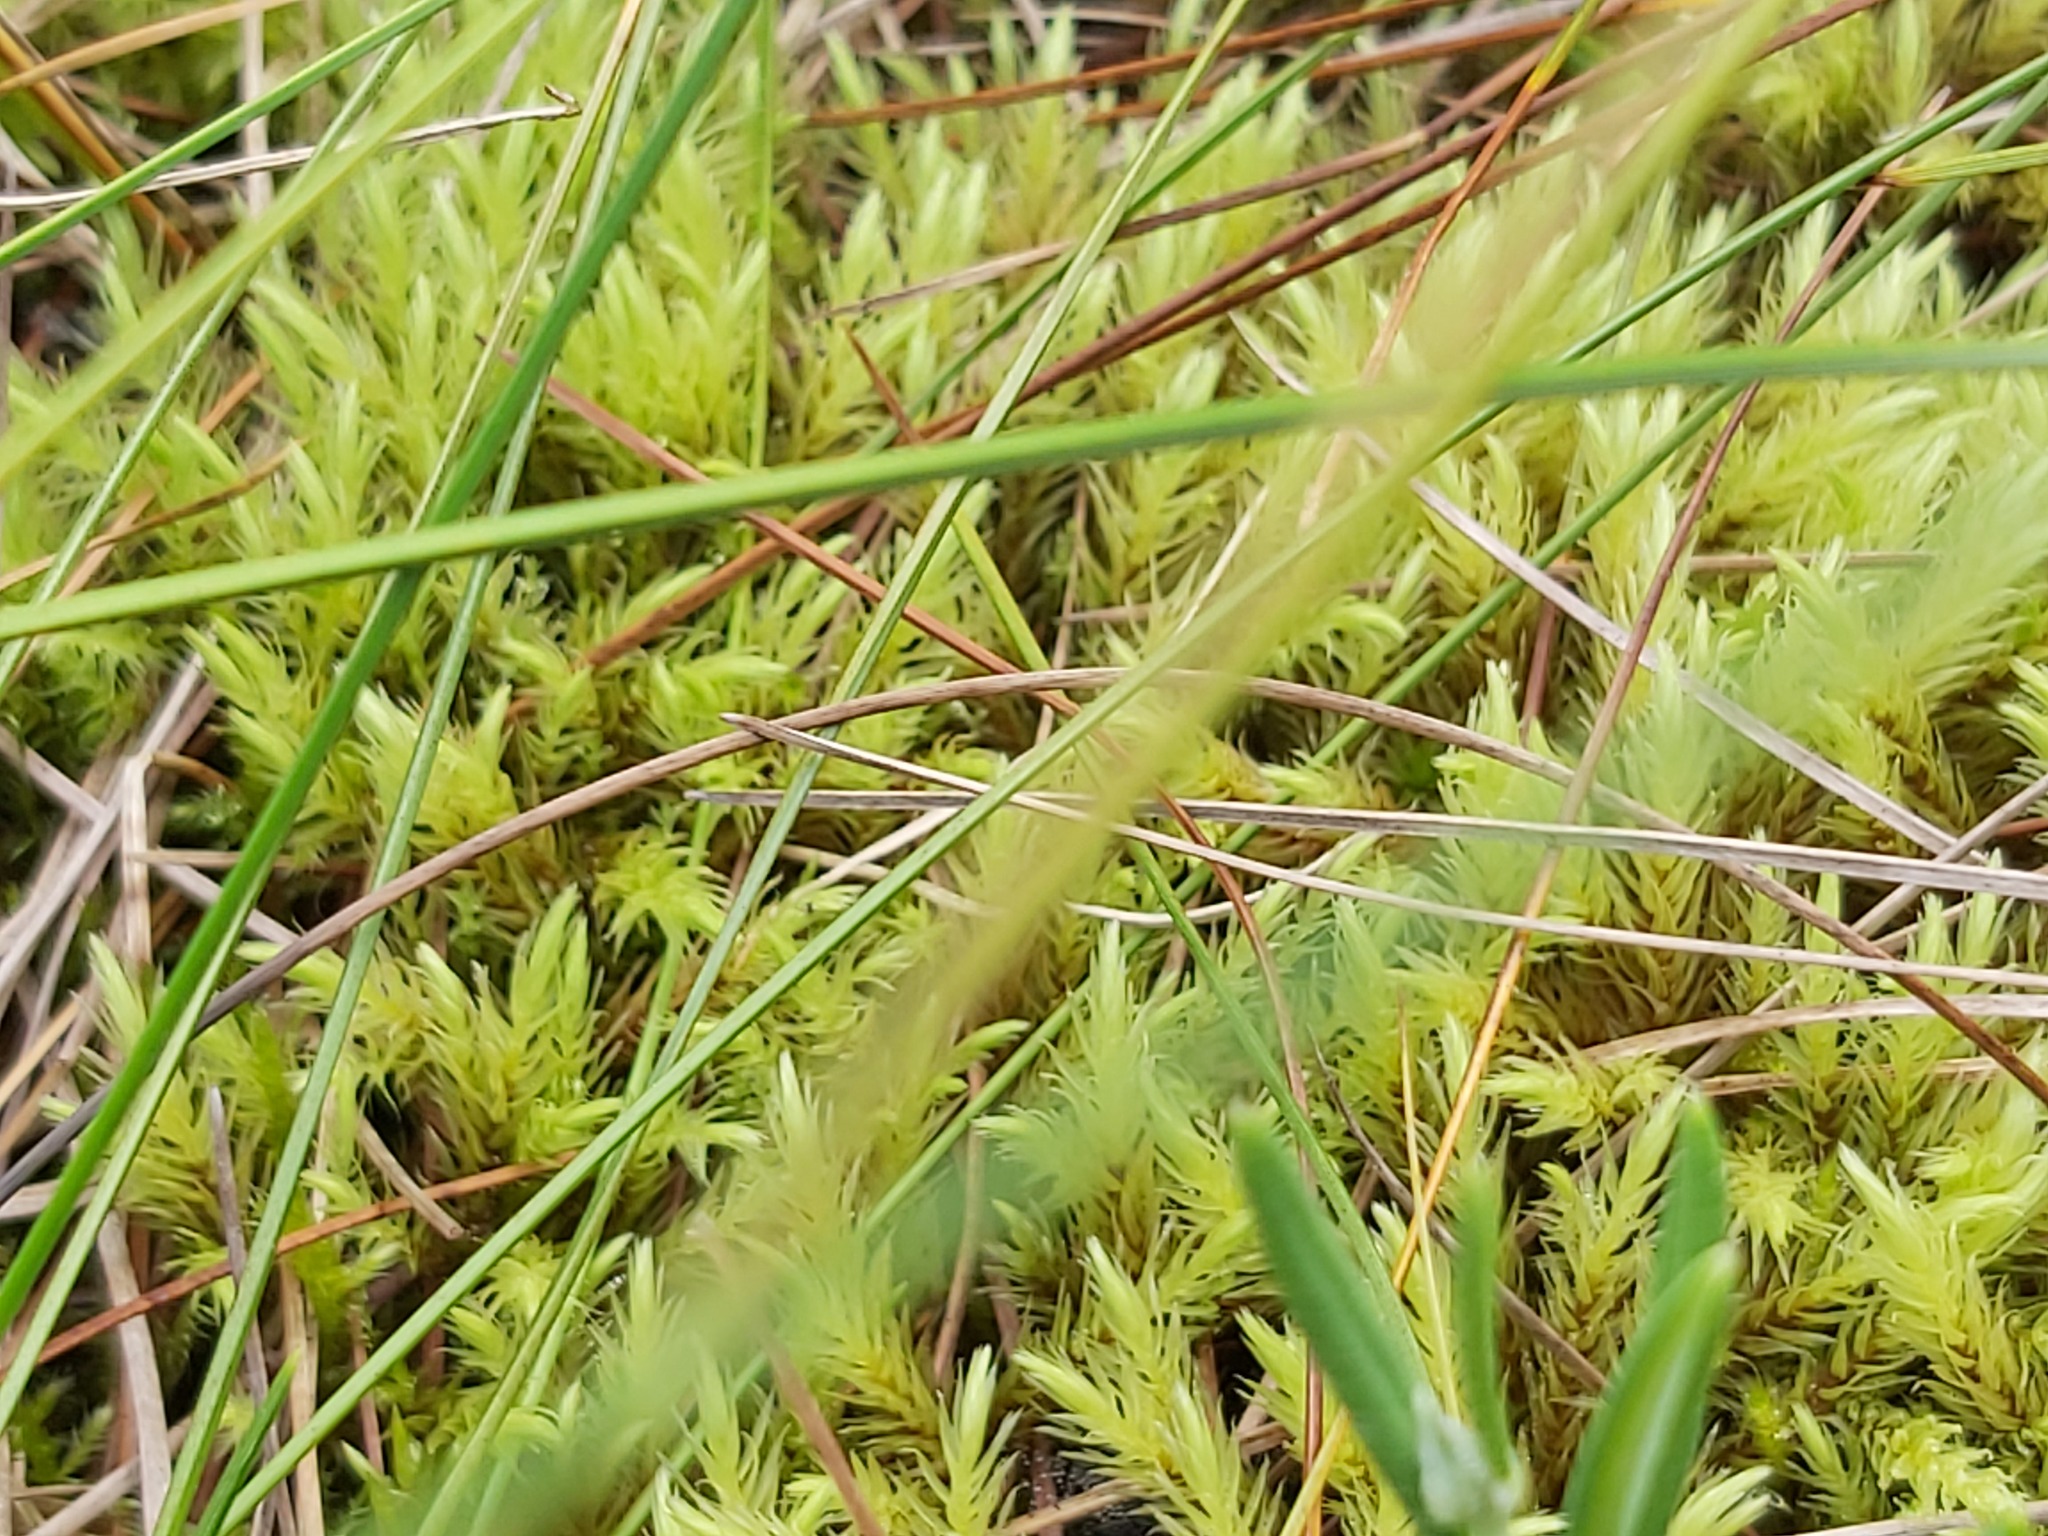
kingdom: Plantae
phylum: Bryophyta
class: Bryopsida
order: Aulacomniales
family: Aulacomniaceae
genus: Aulacomnium
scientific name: Aulacomnium palustre
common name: Bog groove-moss
